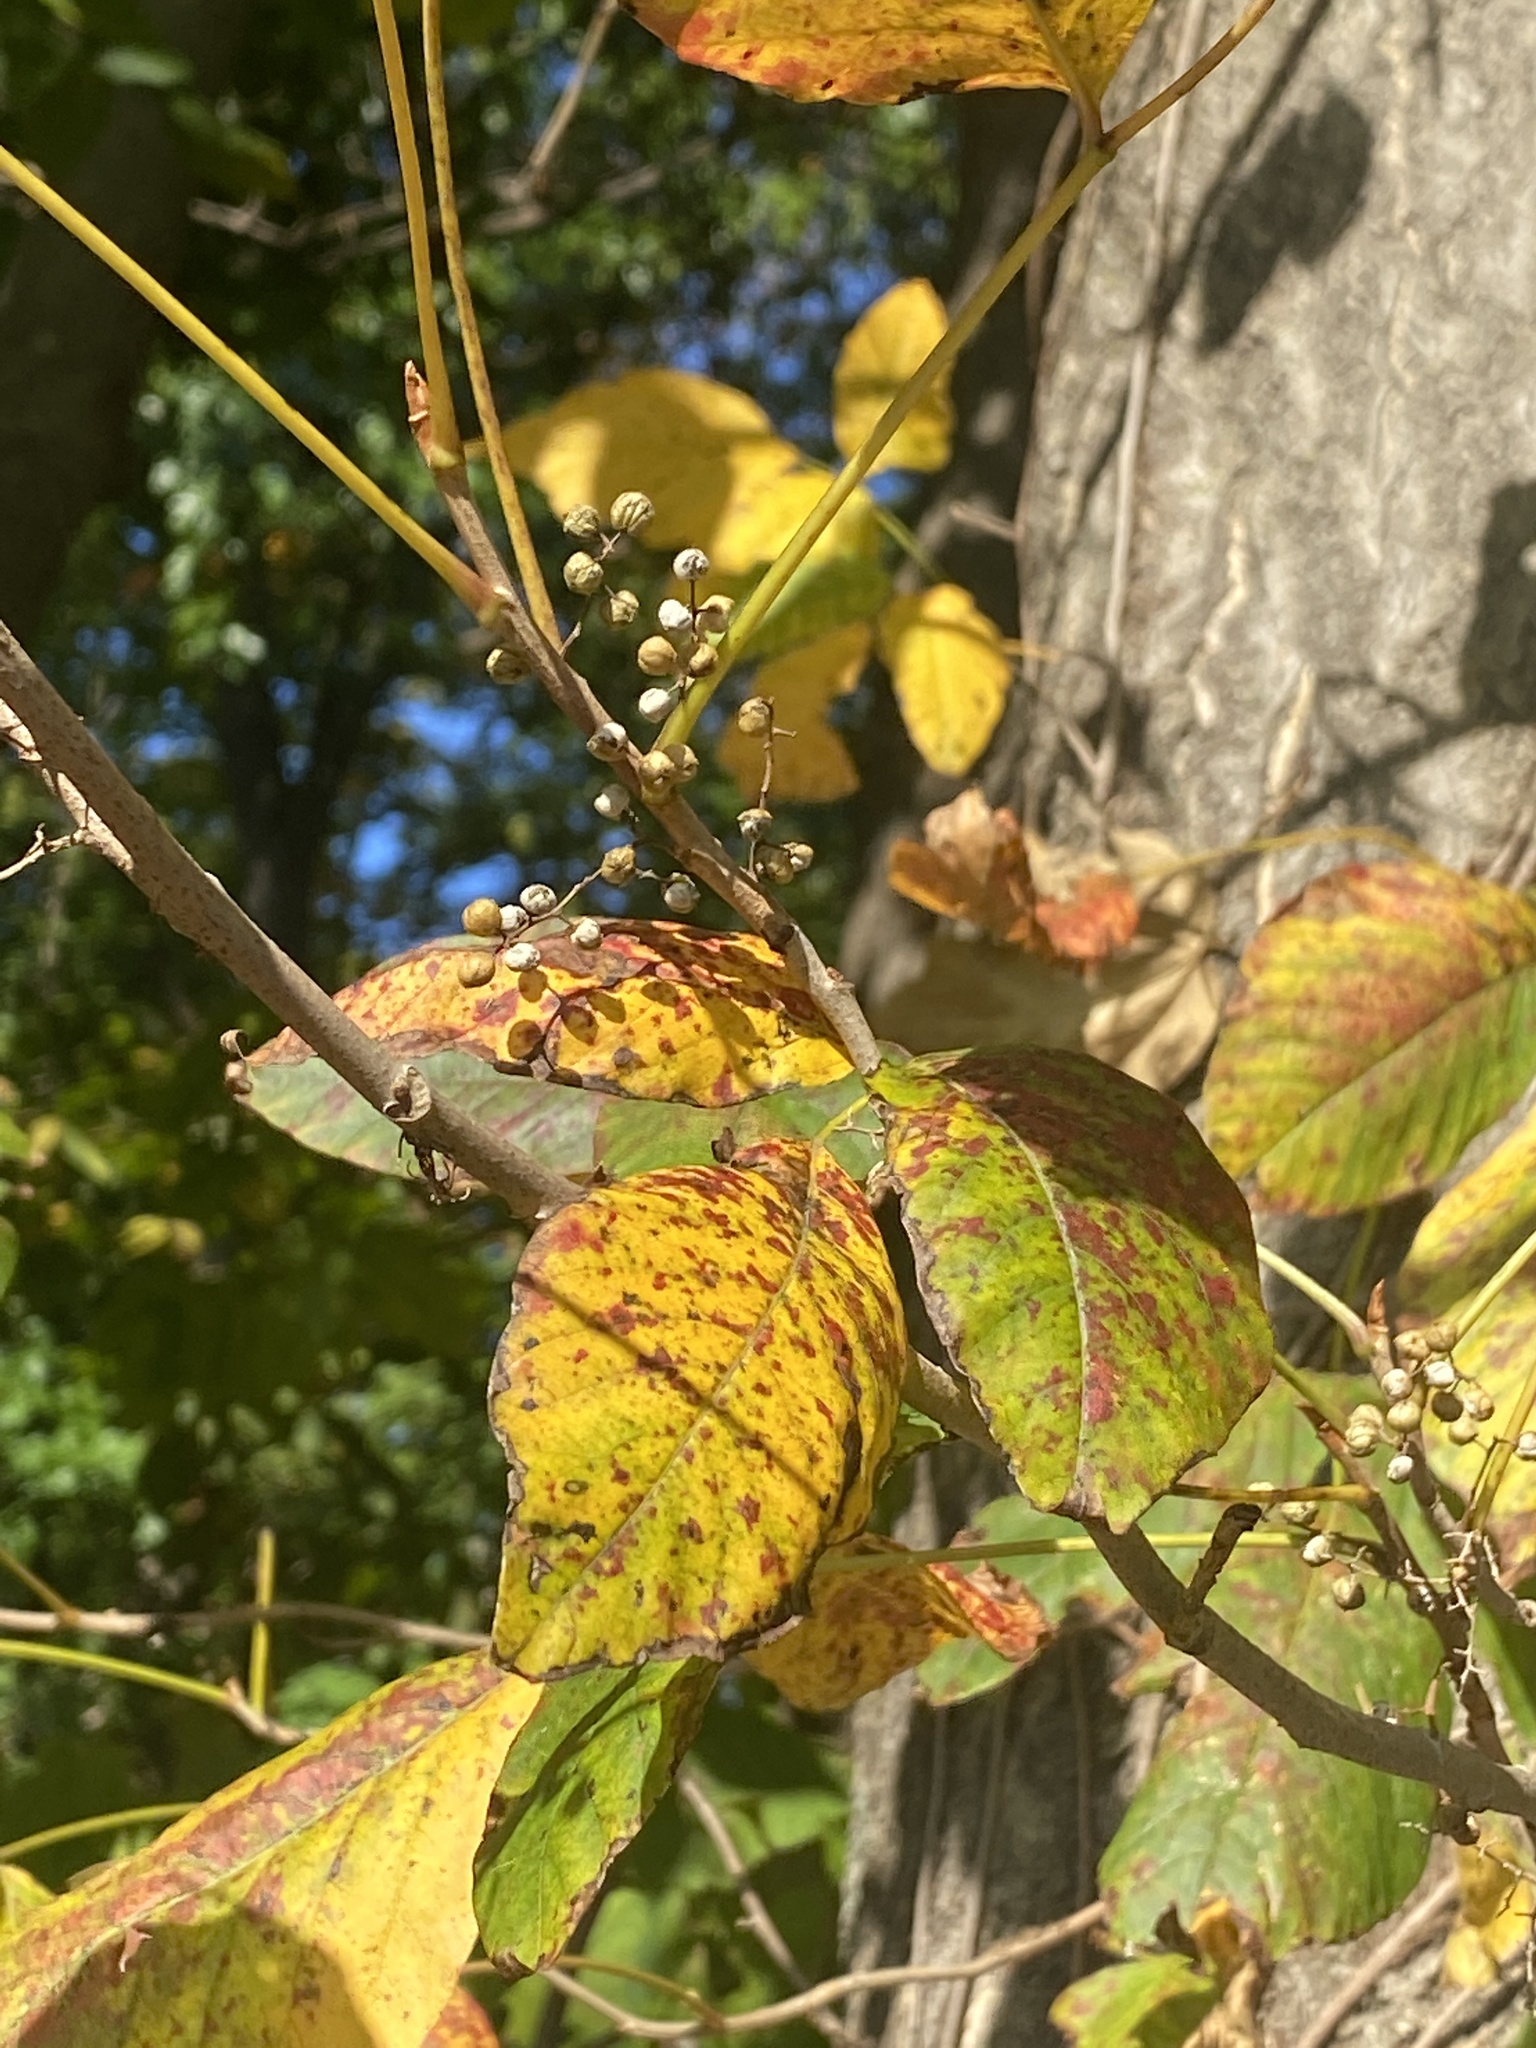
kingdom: Plantae
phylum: Tracheophyta
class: Magnoliopsida
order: Sapindales
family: Anacardiaceae
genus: Toxicodendron
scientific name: Toxicodendron radicans
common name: Poison ivy
